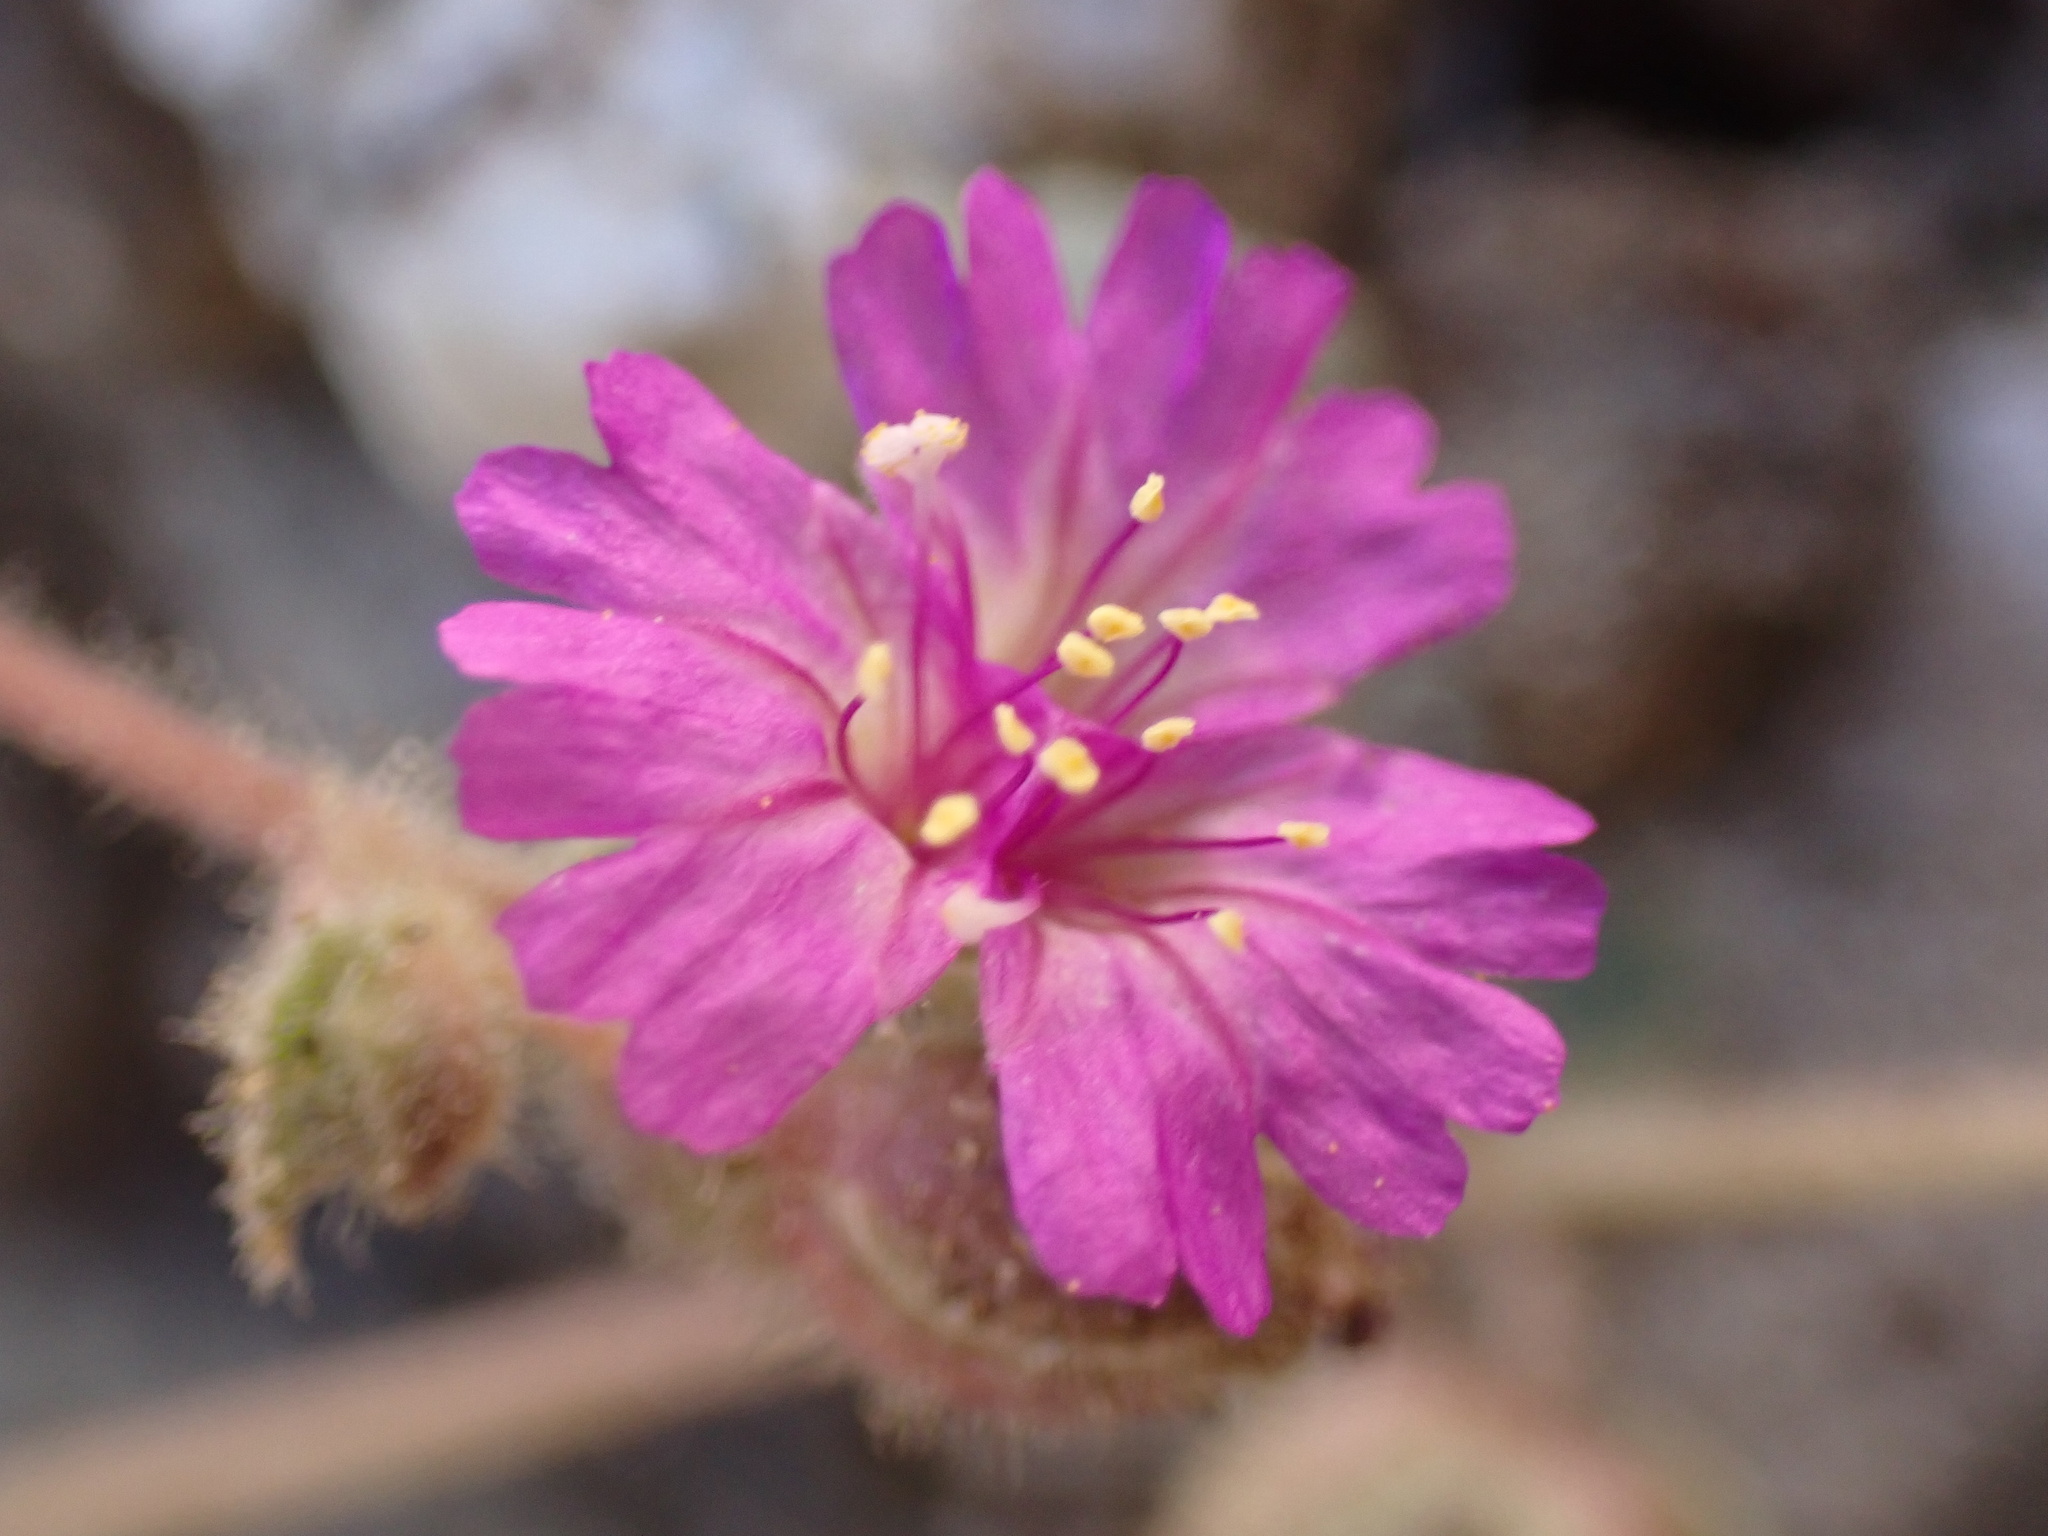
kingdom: Plantae
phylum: Tracheophyta
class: Magnoliopsida
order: Caryophyllales
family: Nyctaginaceae
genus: Allionia
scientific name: Allionia incarnata
